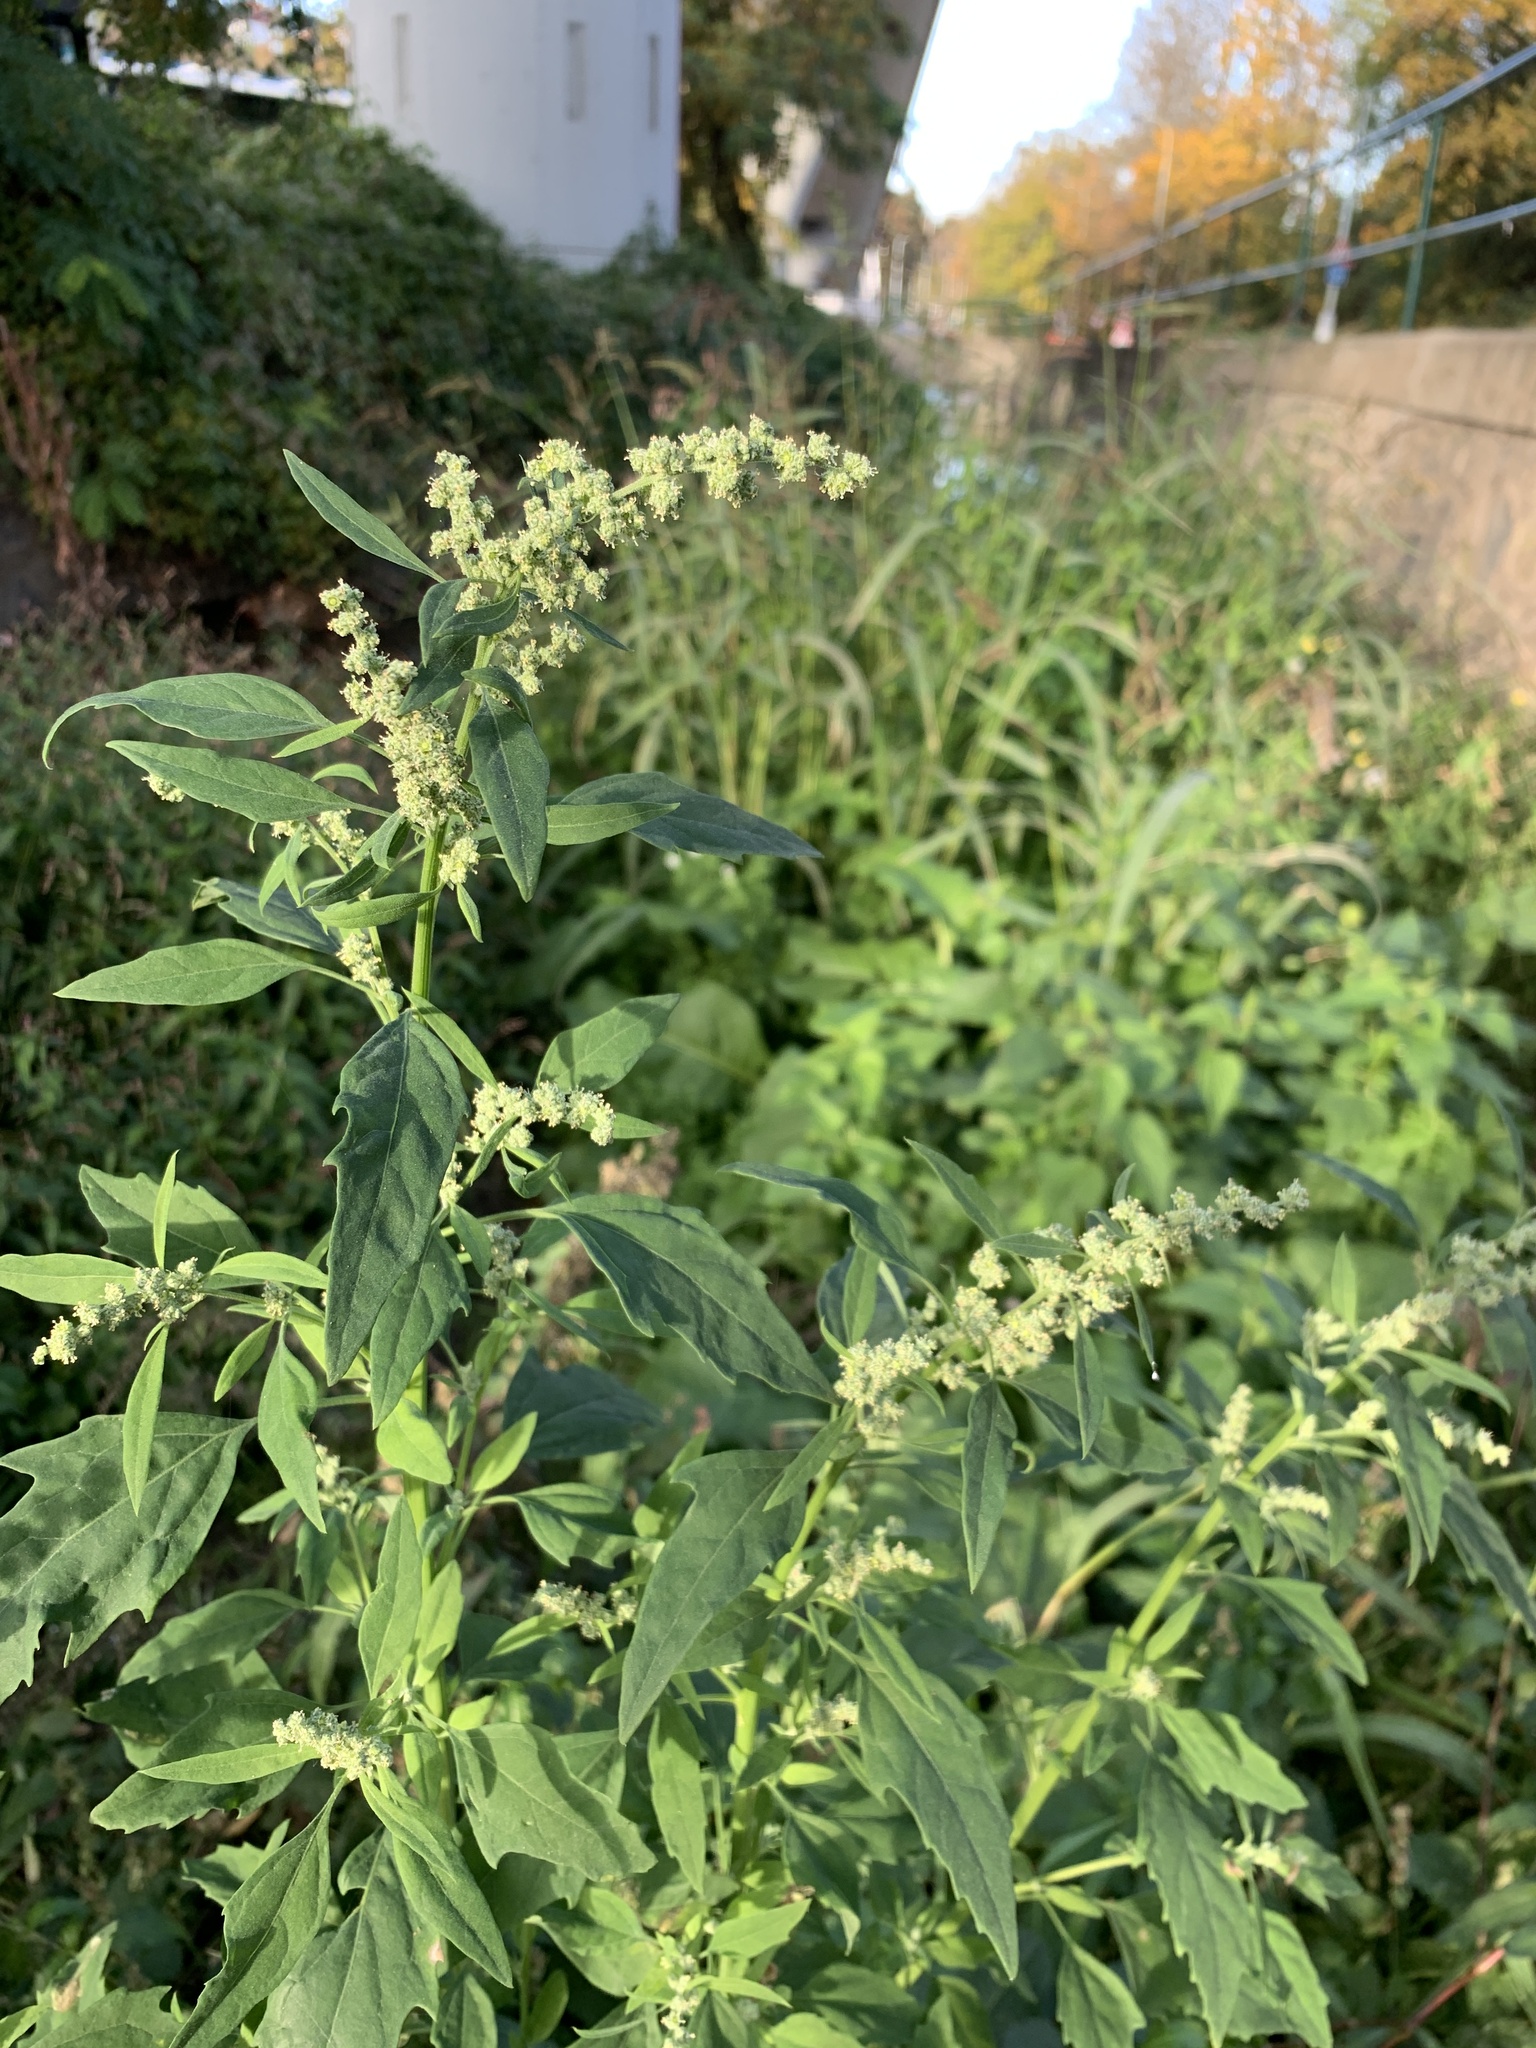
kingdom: Plantae
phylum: Tracheophyta
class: Magnoliopsida
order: Caryophyllales
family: Amaranthaceae
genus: Chenopodium
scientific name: Chenopodium album
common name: Fat-hen
